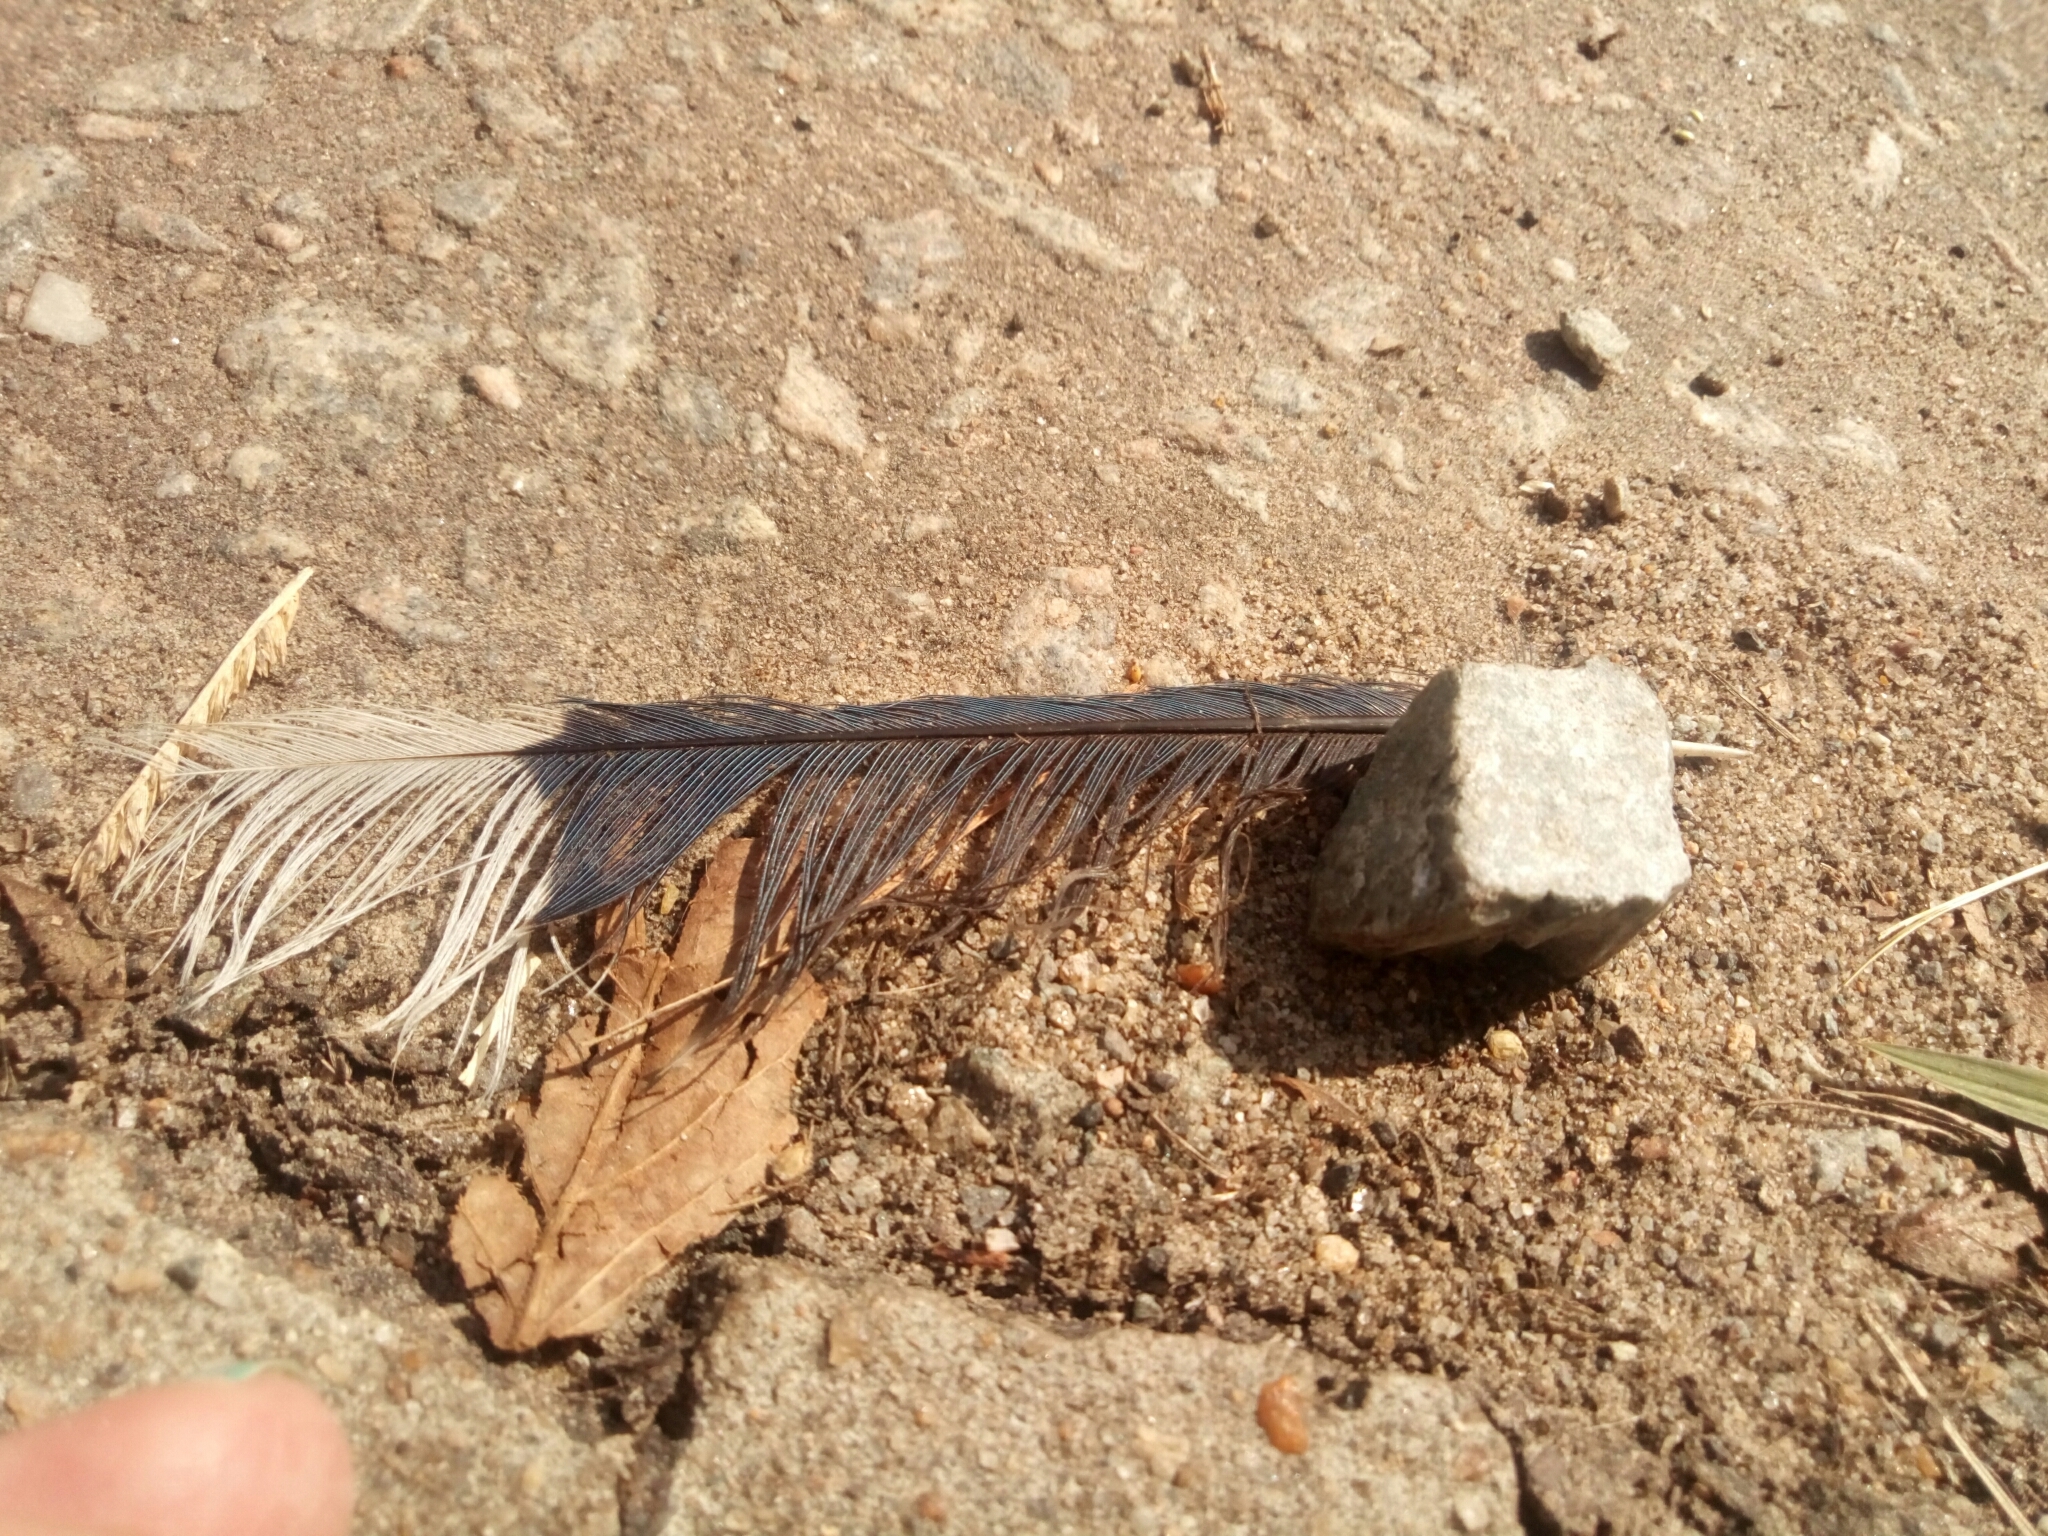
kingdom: Animalia
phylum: Chordata
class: Aves
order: Passeriformes
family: Corvidae
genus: Cyanocitta
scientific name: Cyanocitta cristata
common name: Blue jay
